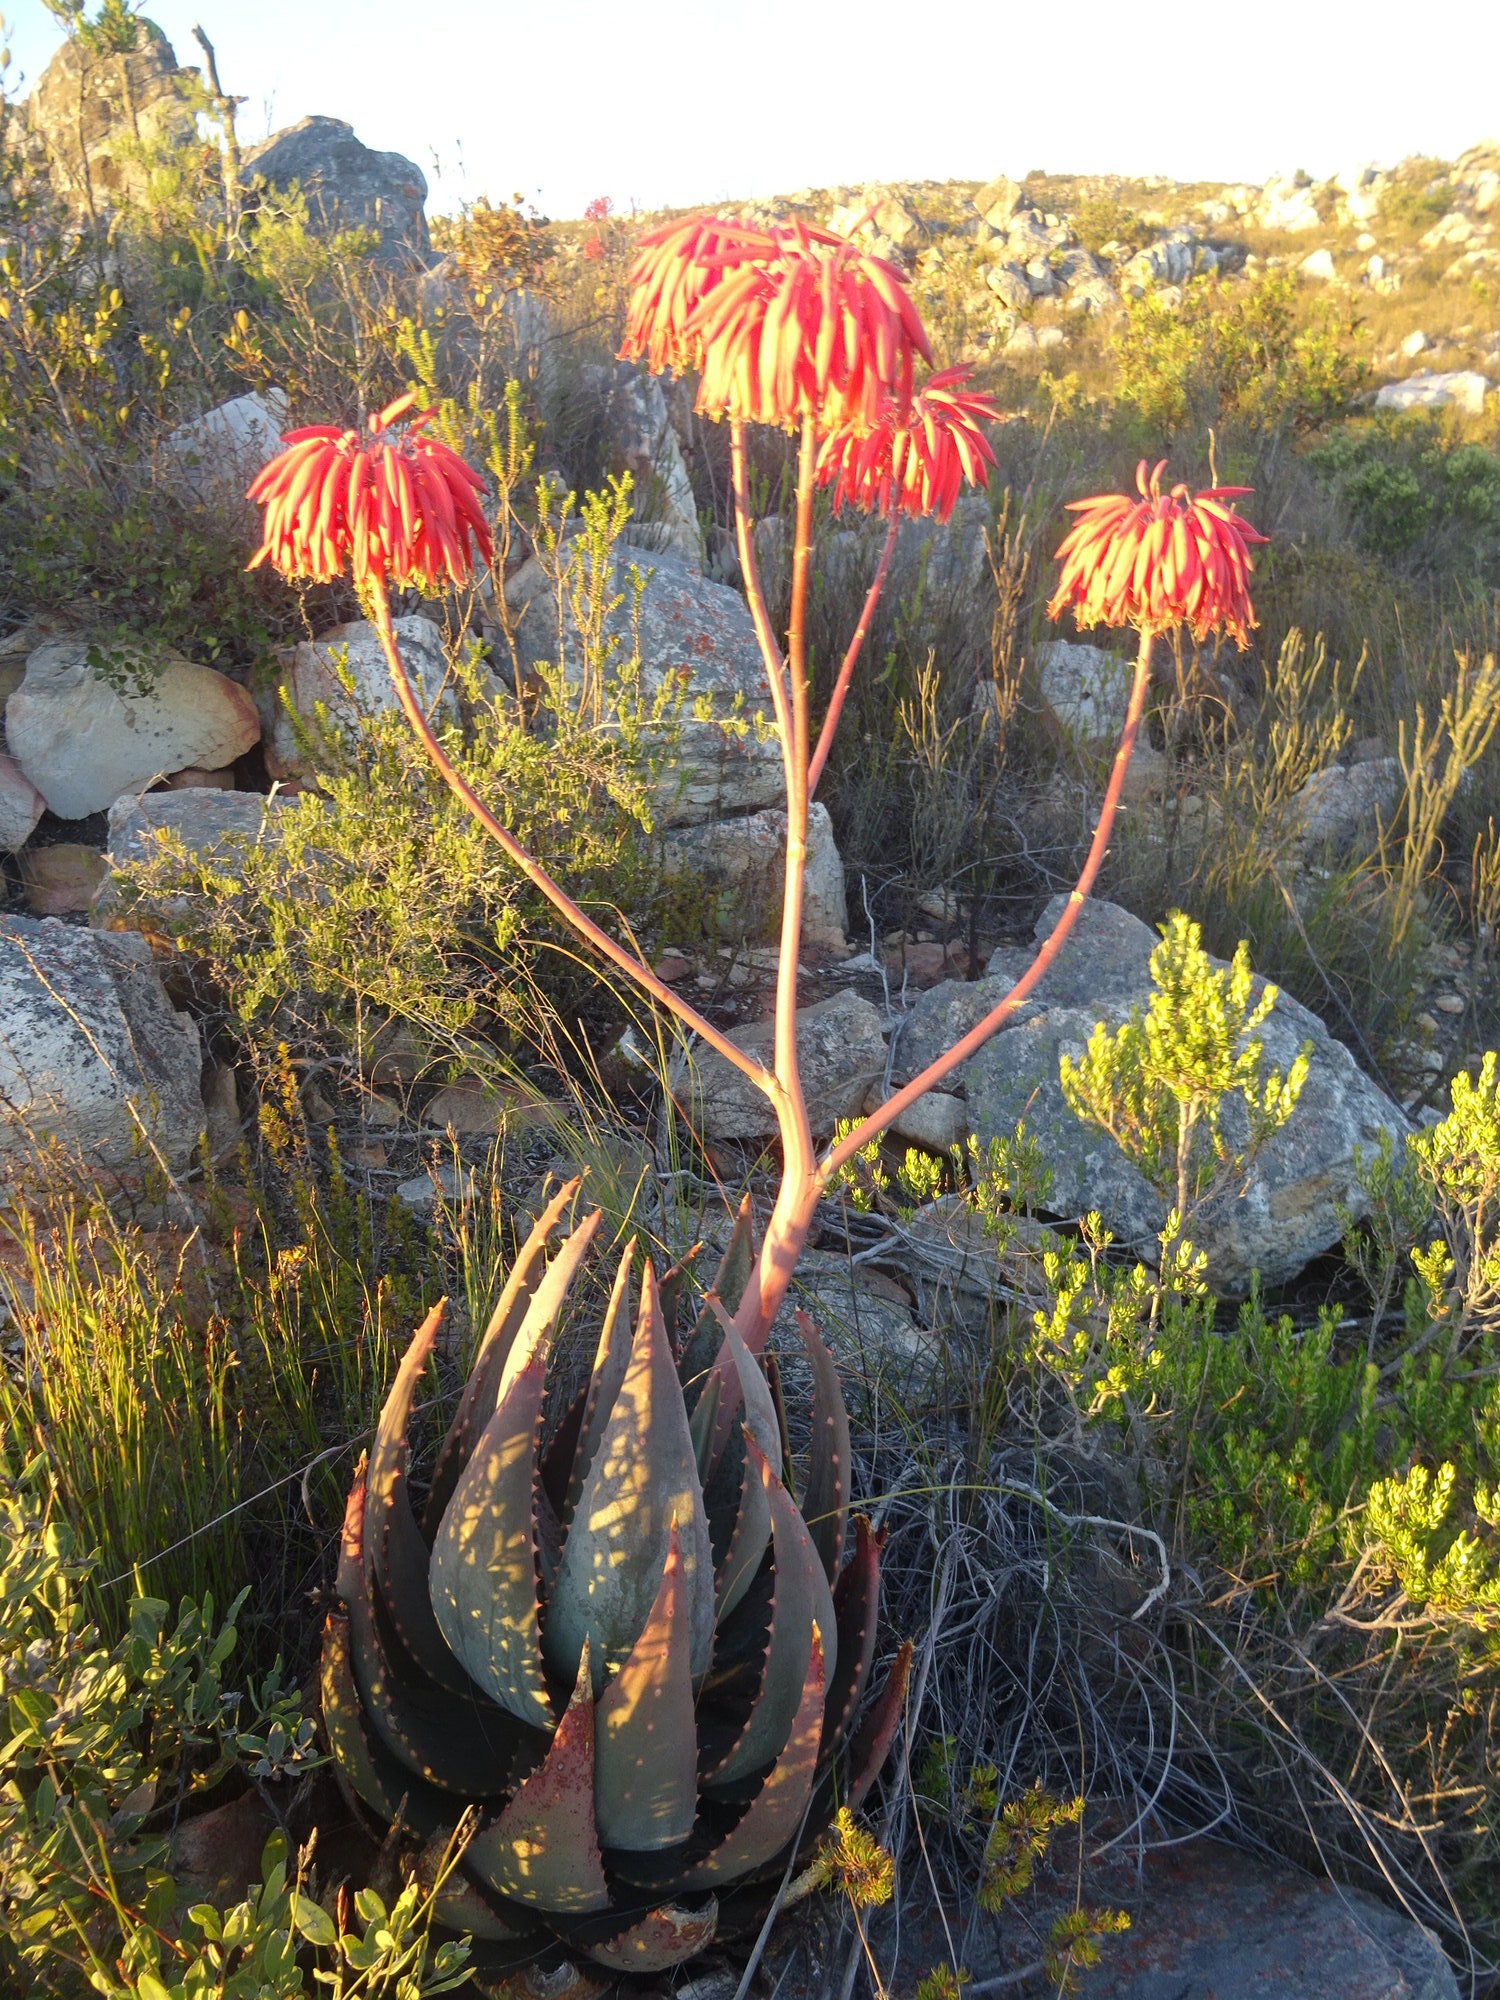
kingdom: Plantae
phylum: Tracheophyta
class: Liliopsida
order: Asparagales
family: Asphodelaceae
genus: Aloe
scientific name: Aloe comptonii
